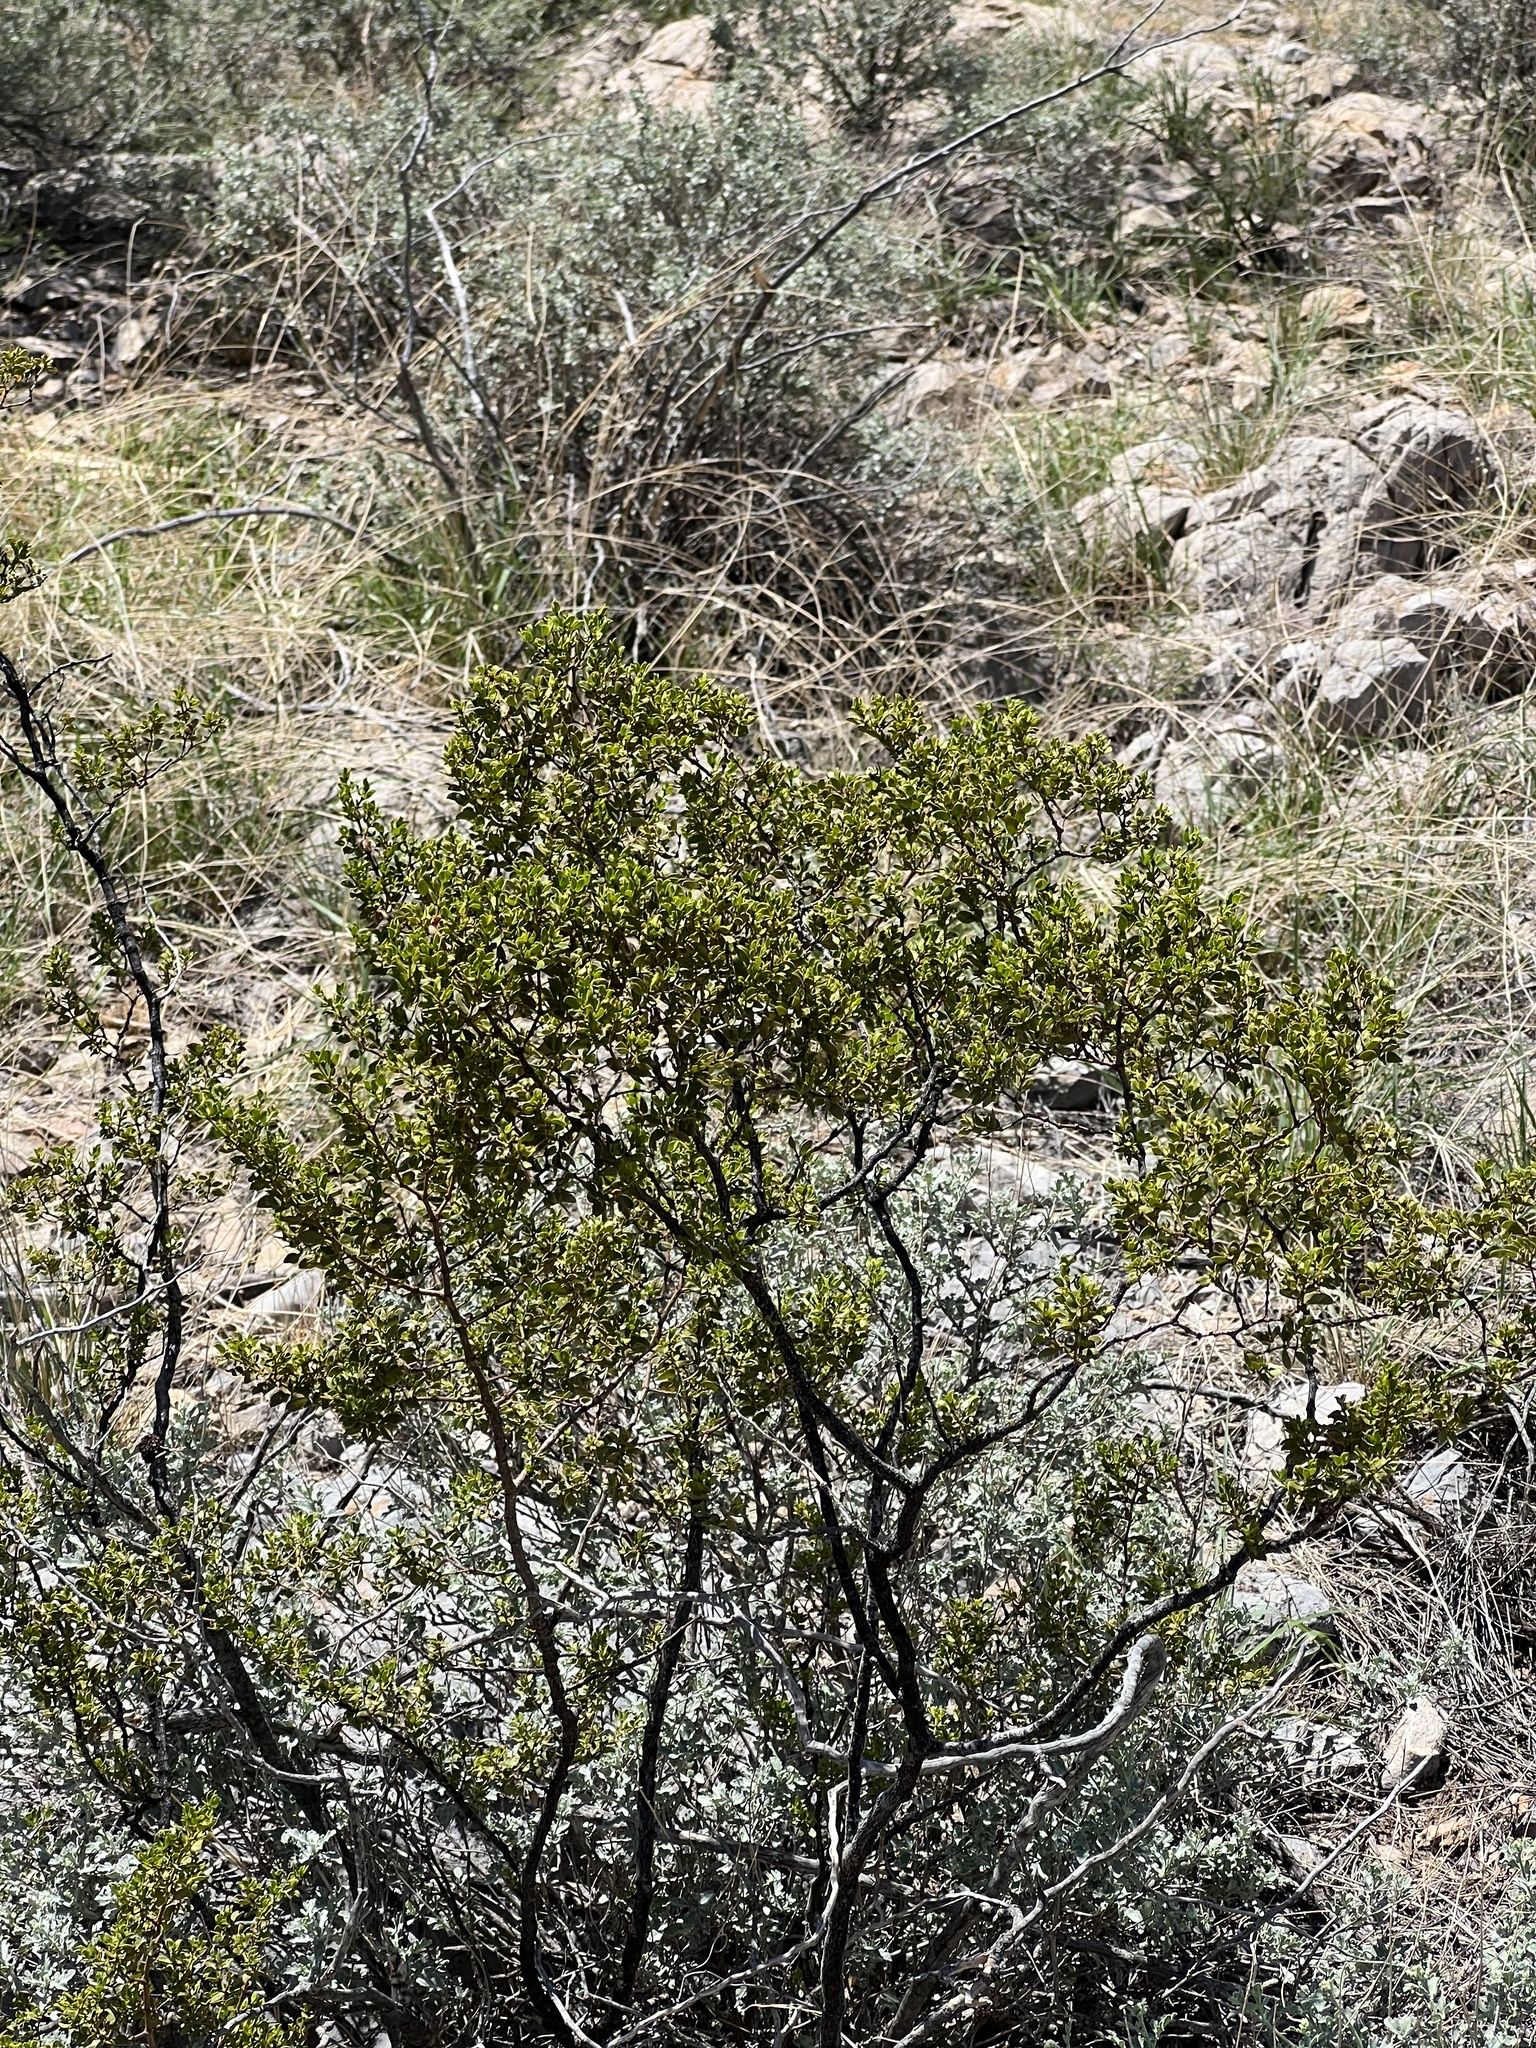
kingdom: Plantae
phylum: Tracheophyta
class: Magnoliopsida
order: Zygophyllales
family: Zygophyllaceae
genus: Larrea
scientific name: Larrea tridentata
